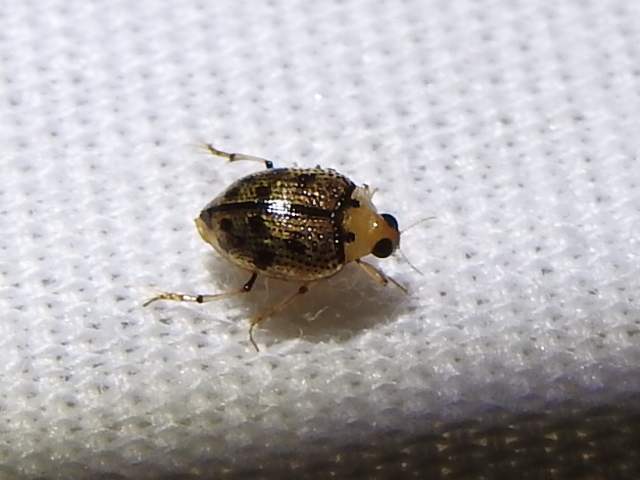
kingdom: Animalia
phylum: Arthropoda
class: Insecta
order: Coleoptera
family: Haliplidae
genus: Peltodytes
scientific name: Peltodytes sexmaculatus
